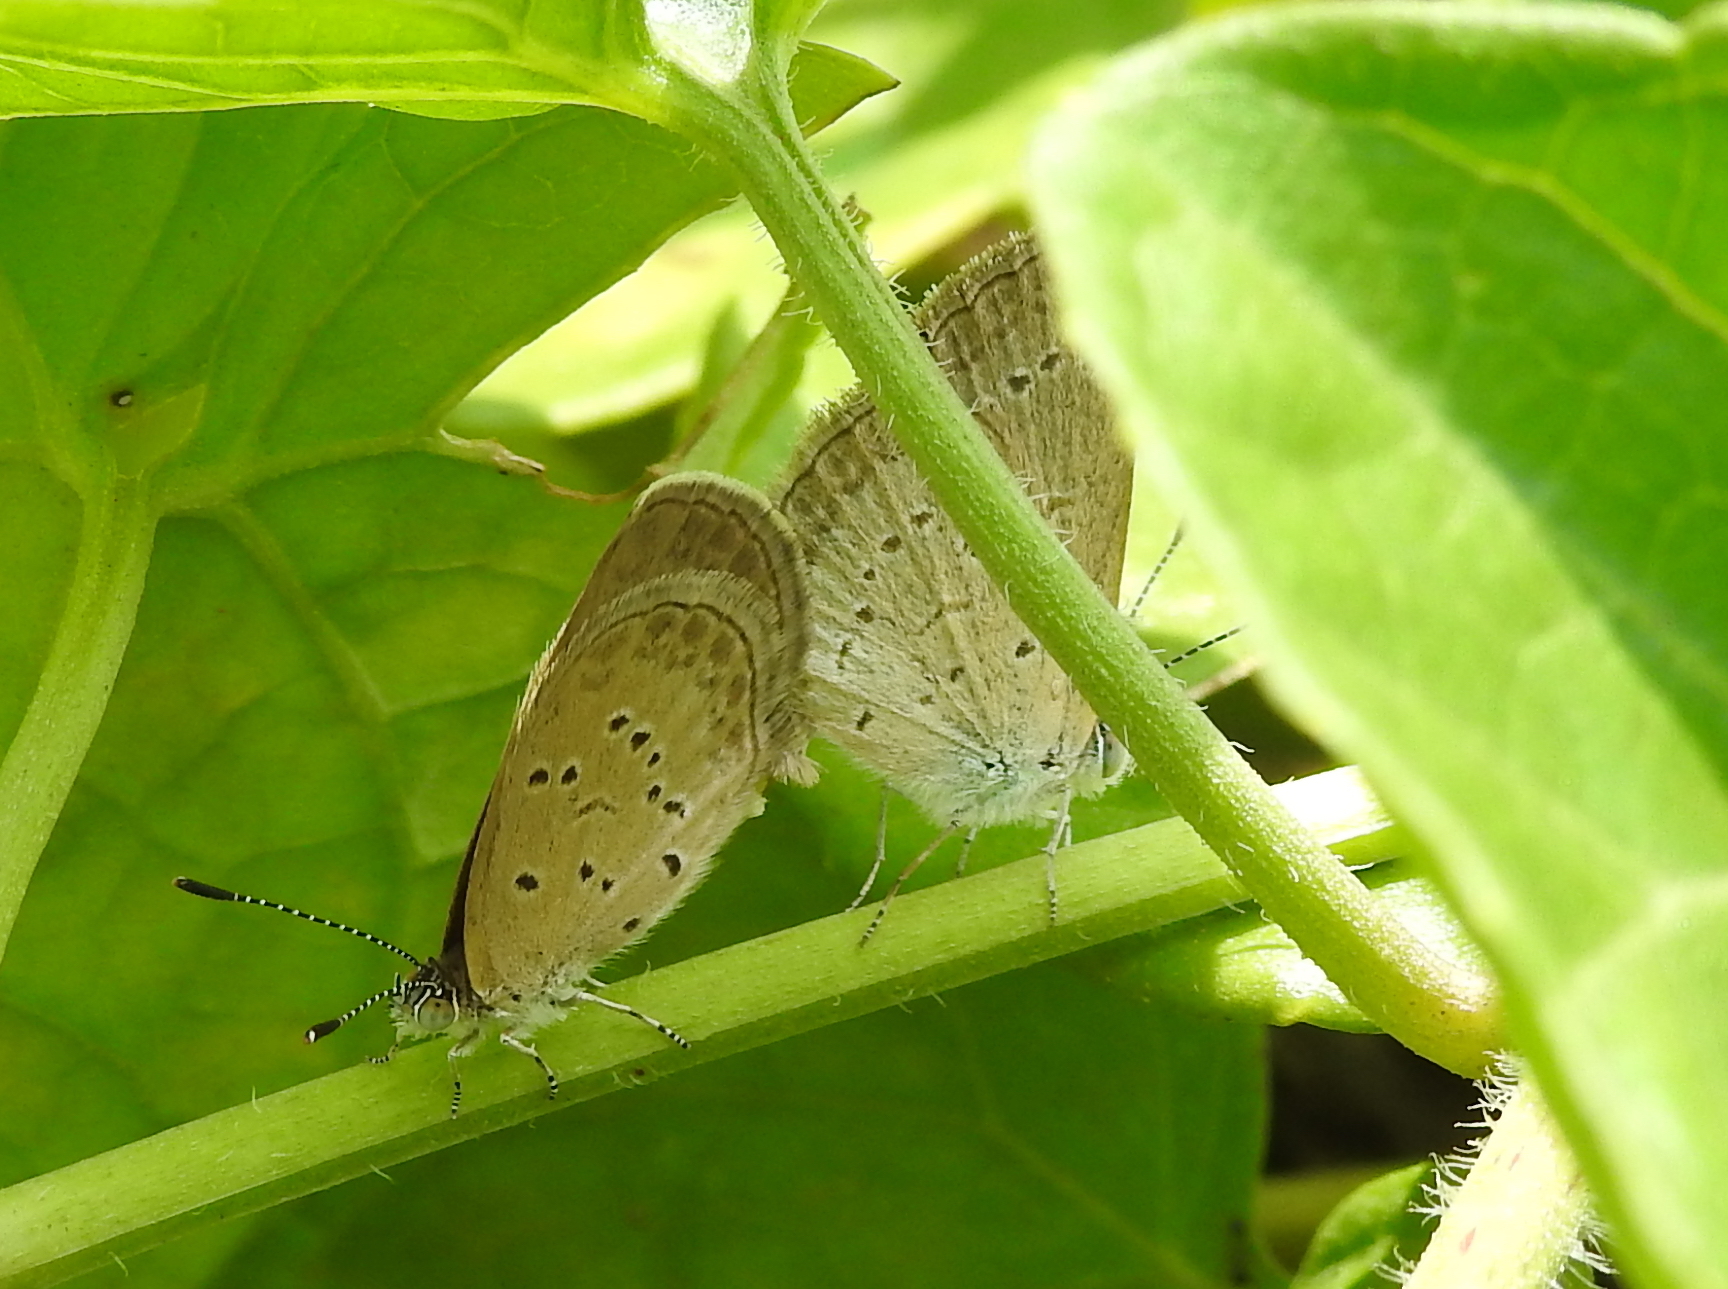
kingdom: Animalia
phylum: Arthropoda
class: Insecta
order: Lepidoptera
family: Lycaenidae
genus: Zizina
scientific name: Zizina otis
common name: Lesser grass blue
